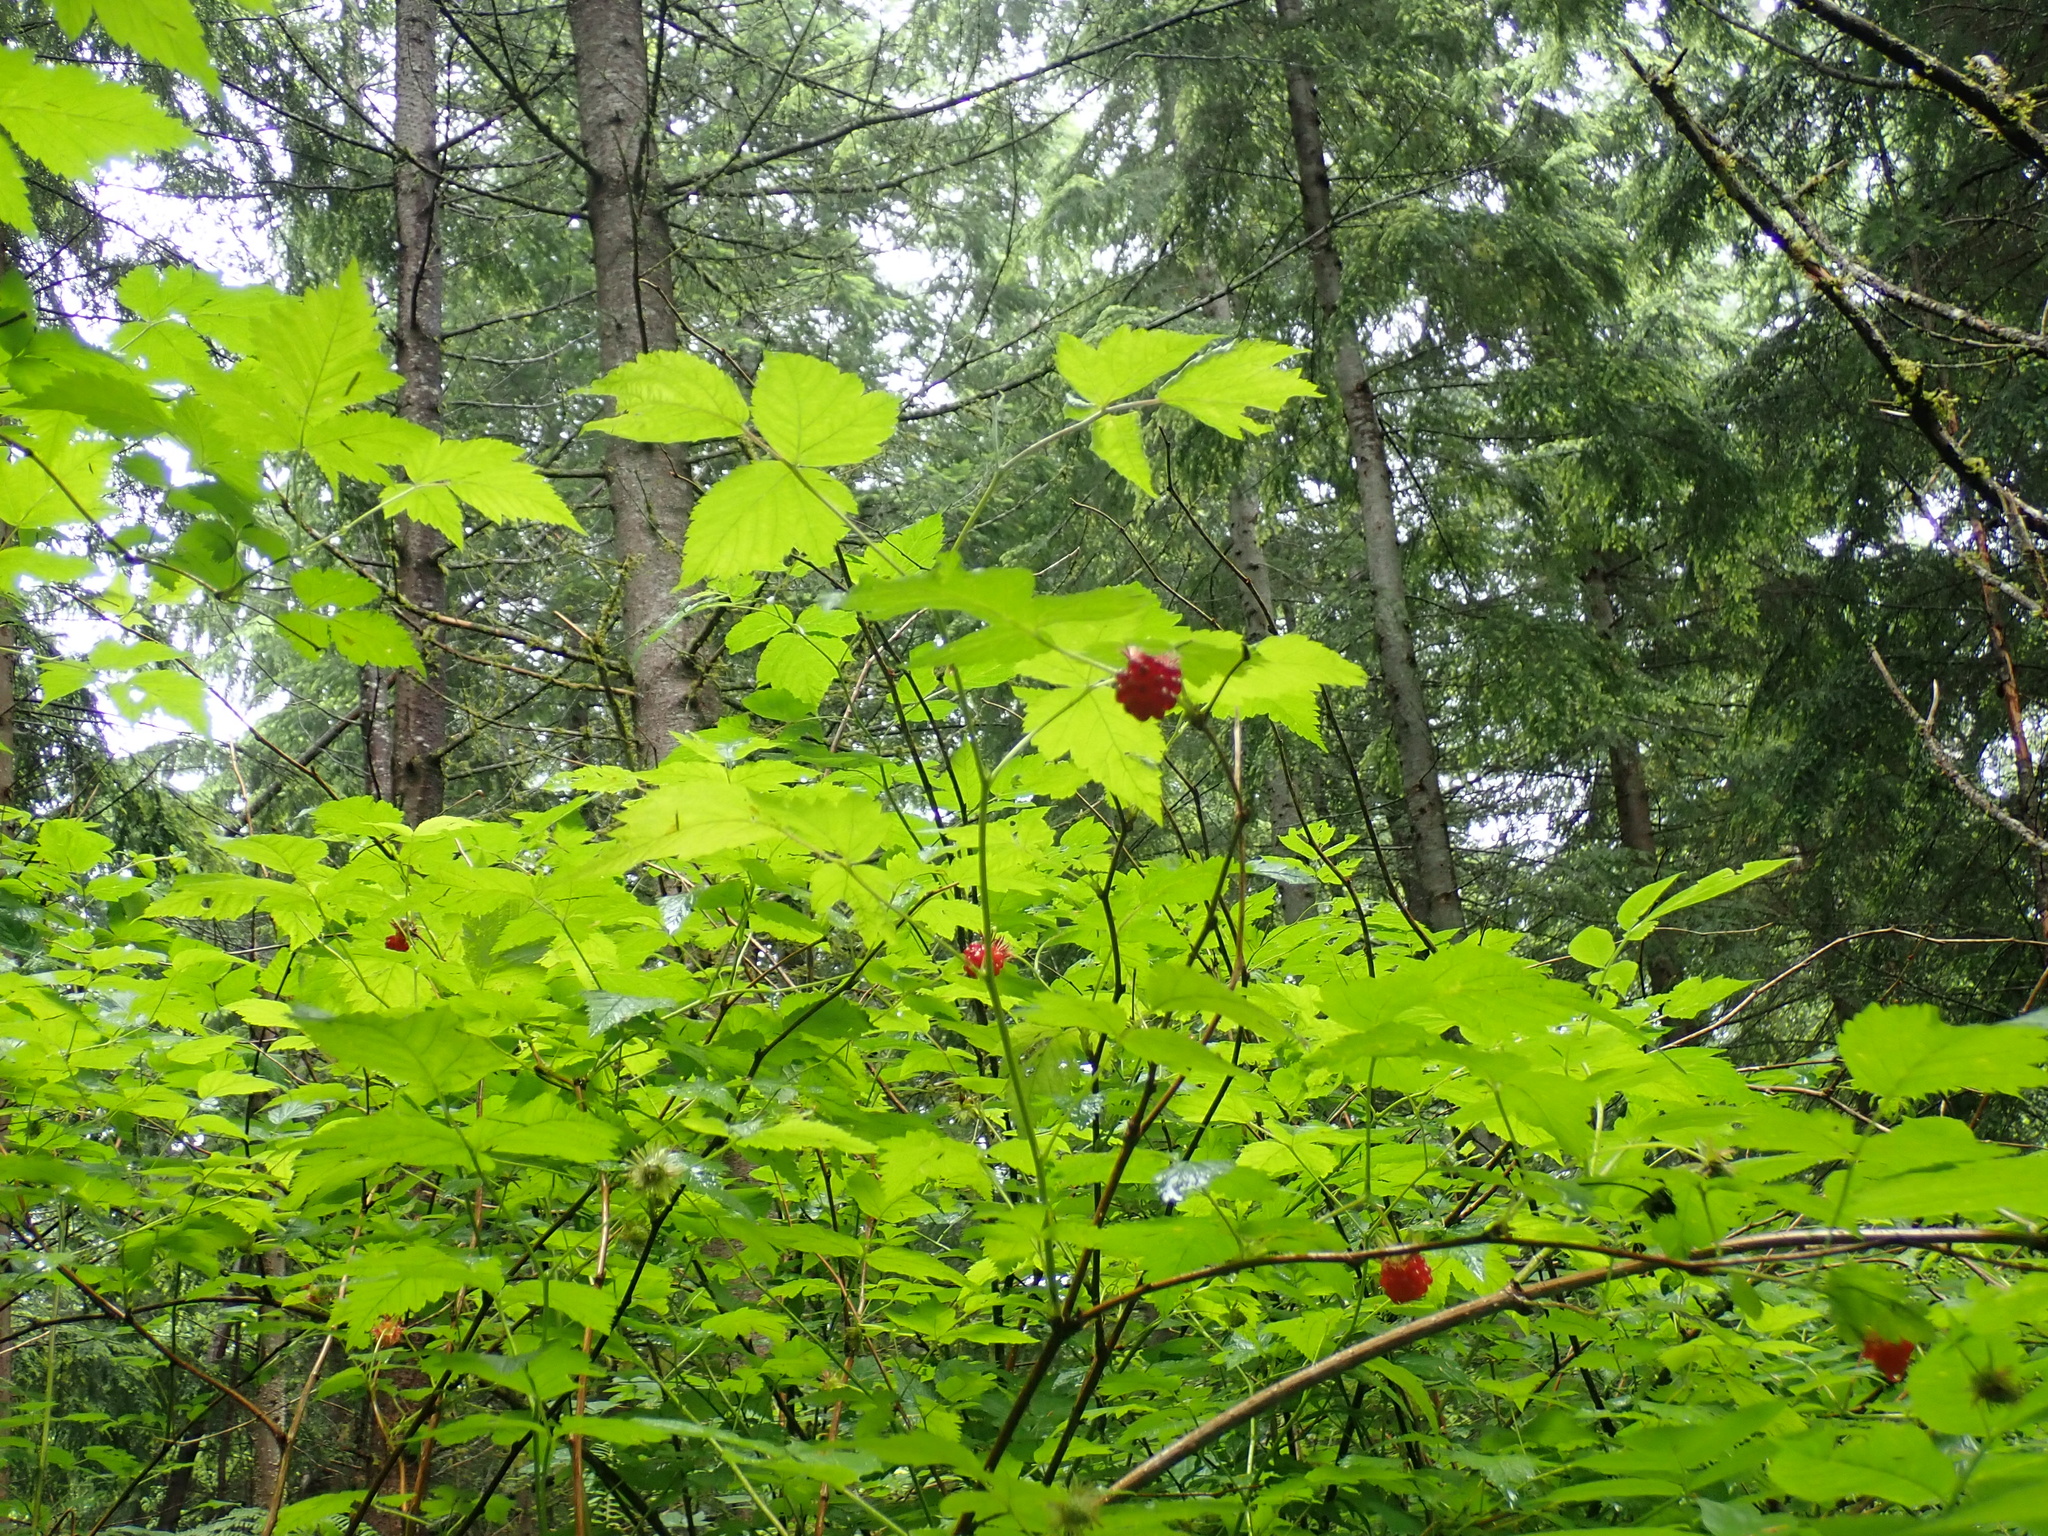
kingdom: Plantae
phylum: Tracheophyta
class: Magnoliopsida
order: Rosales
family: Rosaceae
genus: Rubus
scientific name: Rubus spectabilis
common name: Salmonberry
